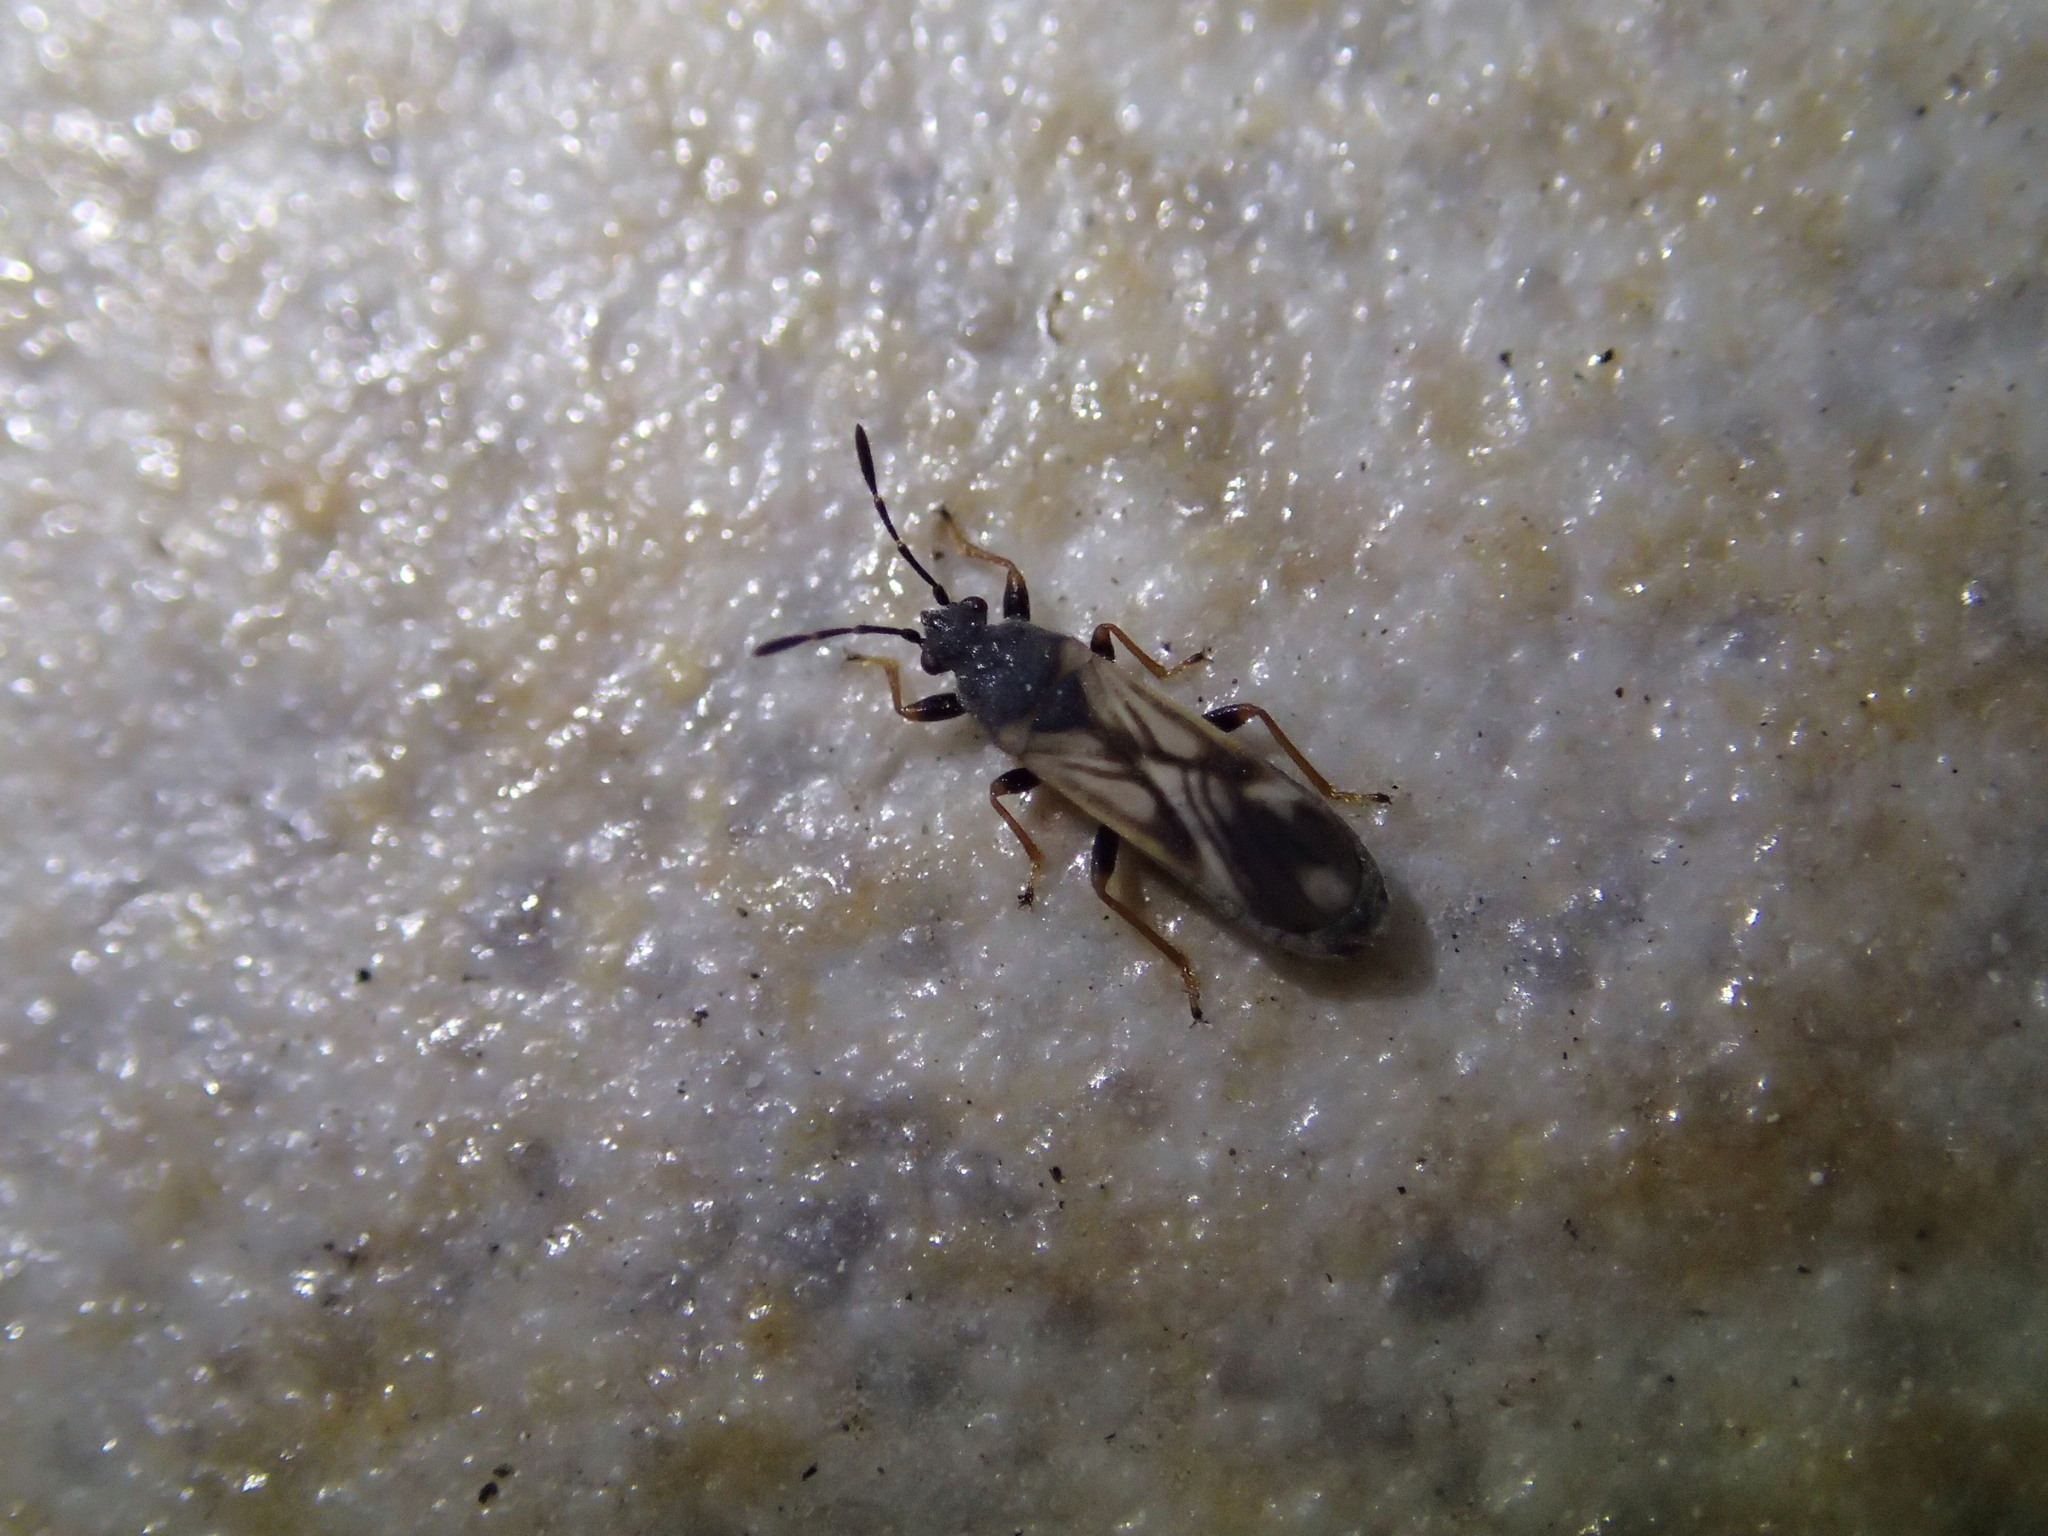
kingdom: Animalia
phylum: Arthropoda
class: Insecta
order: Hemiptera
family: Blissidae
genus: Ischnodemus
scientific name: Ischnodemus sabuleti
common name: European cinchbug
